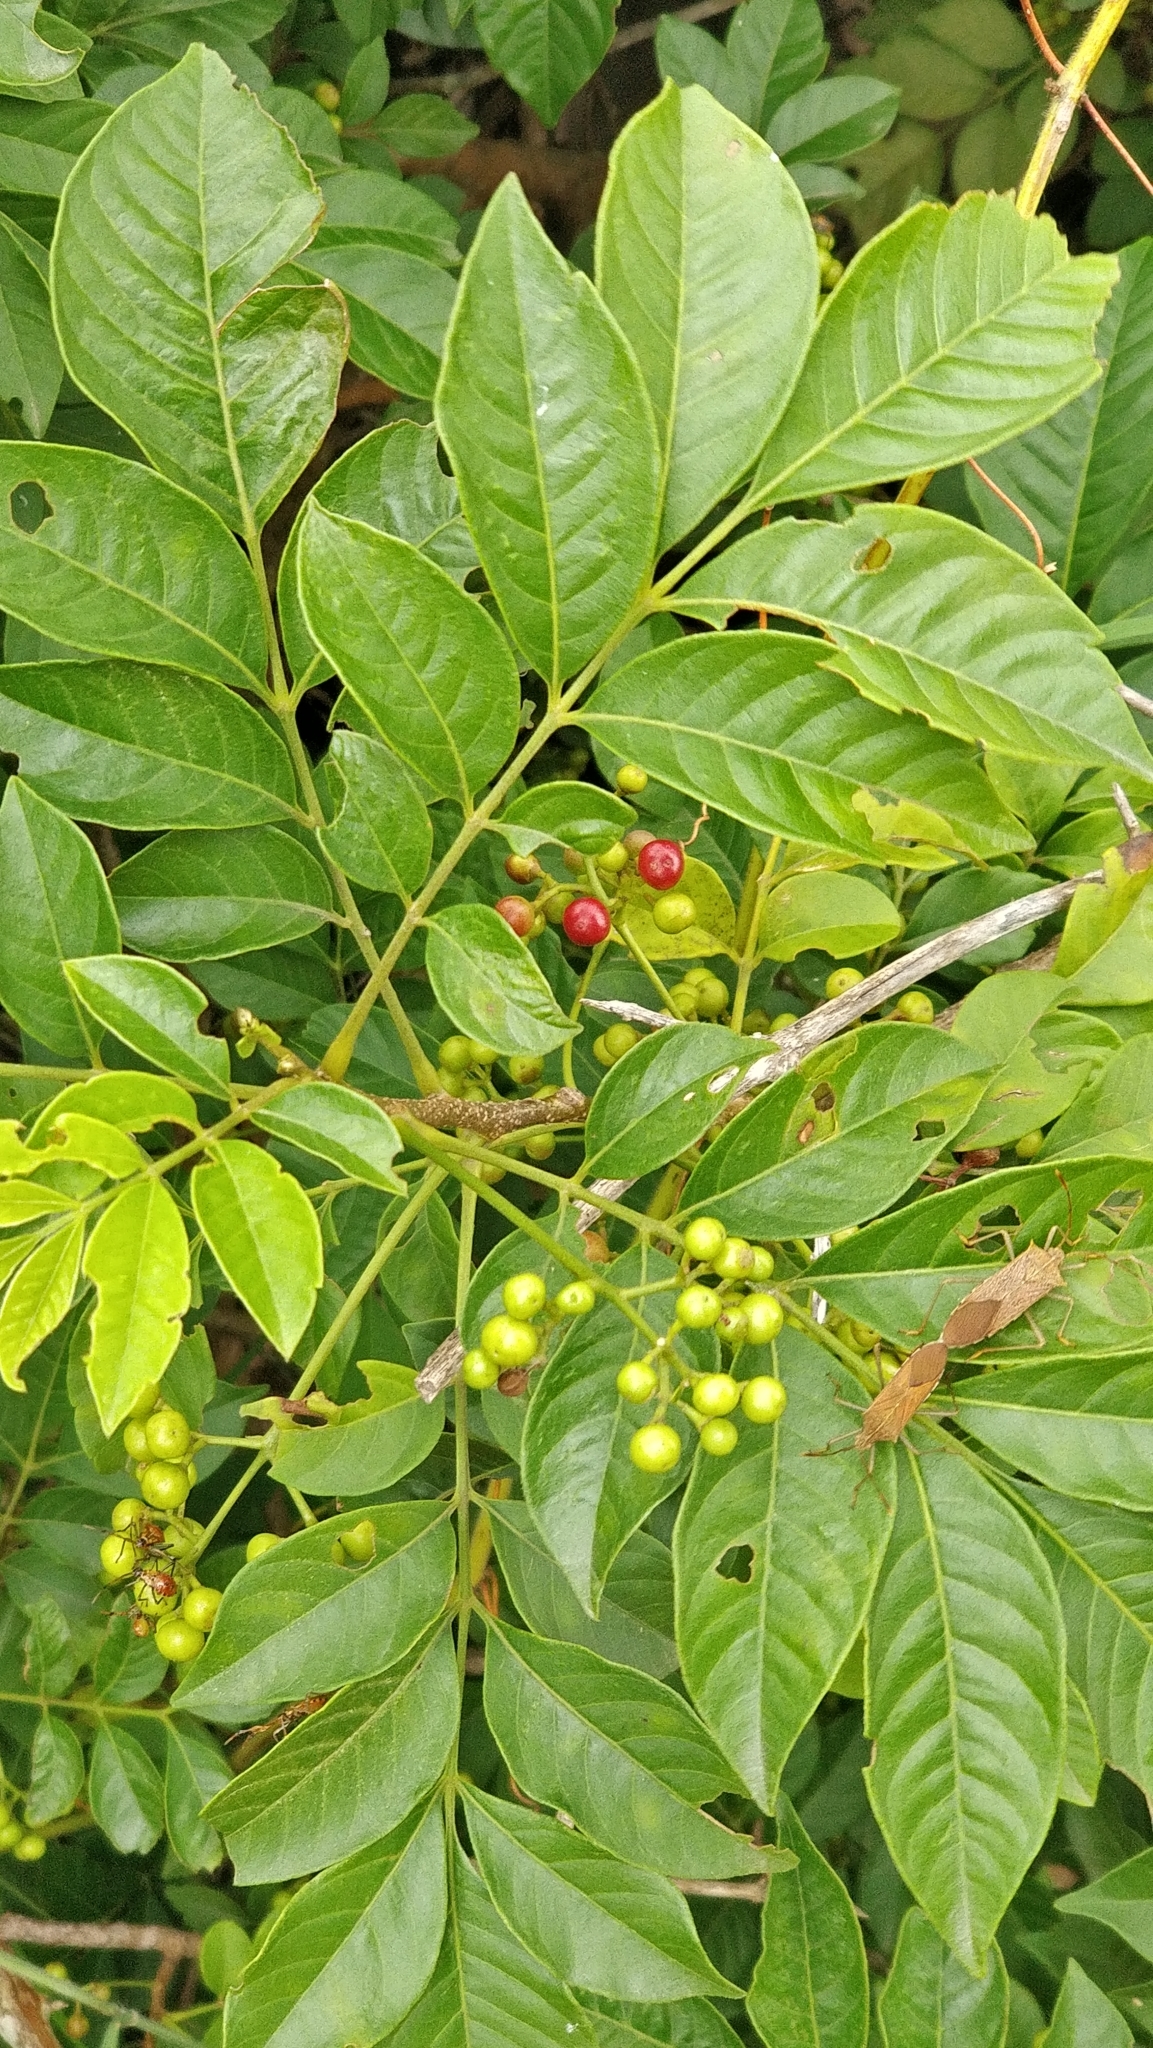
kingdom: Plantae
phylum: Tracheophyta
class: Magnoliopsida
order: Sapindales
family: Meliaceae
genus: Cipadessa
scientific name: Cipadessa baccifera
